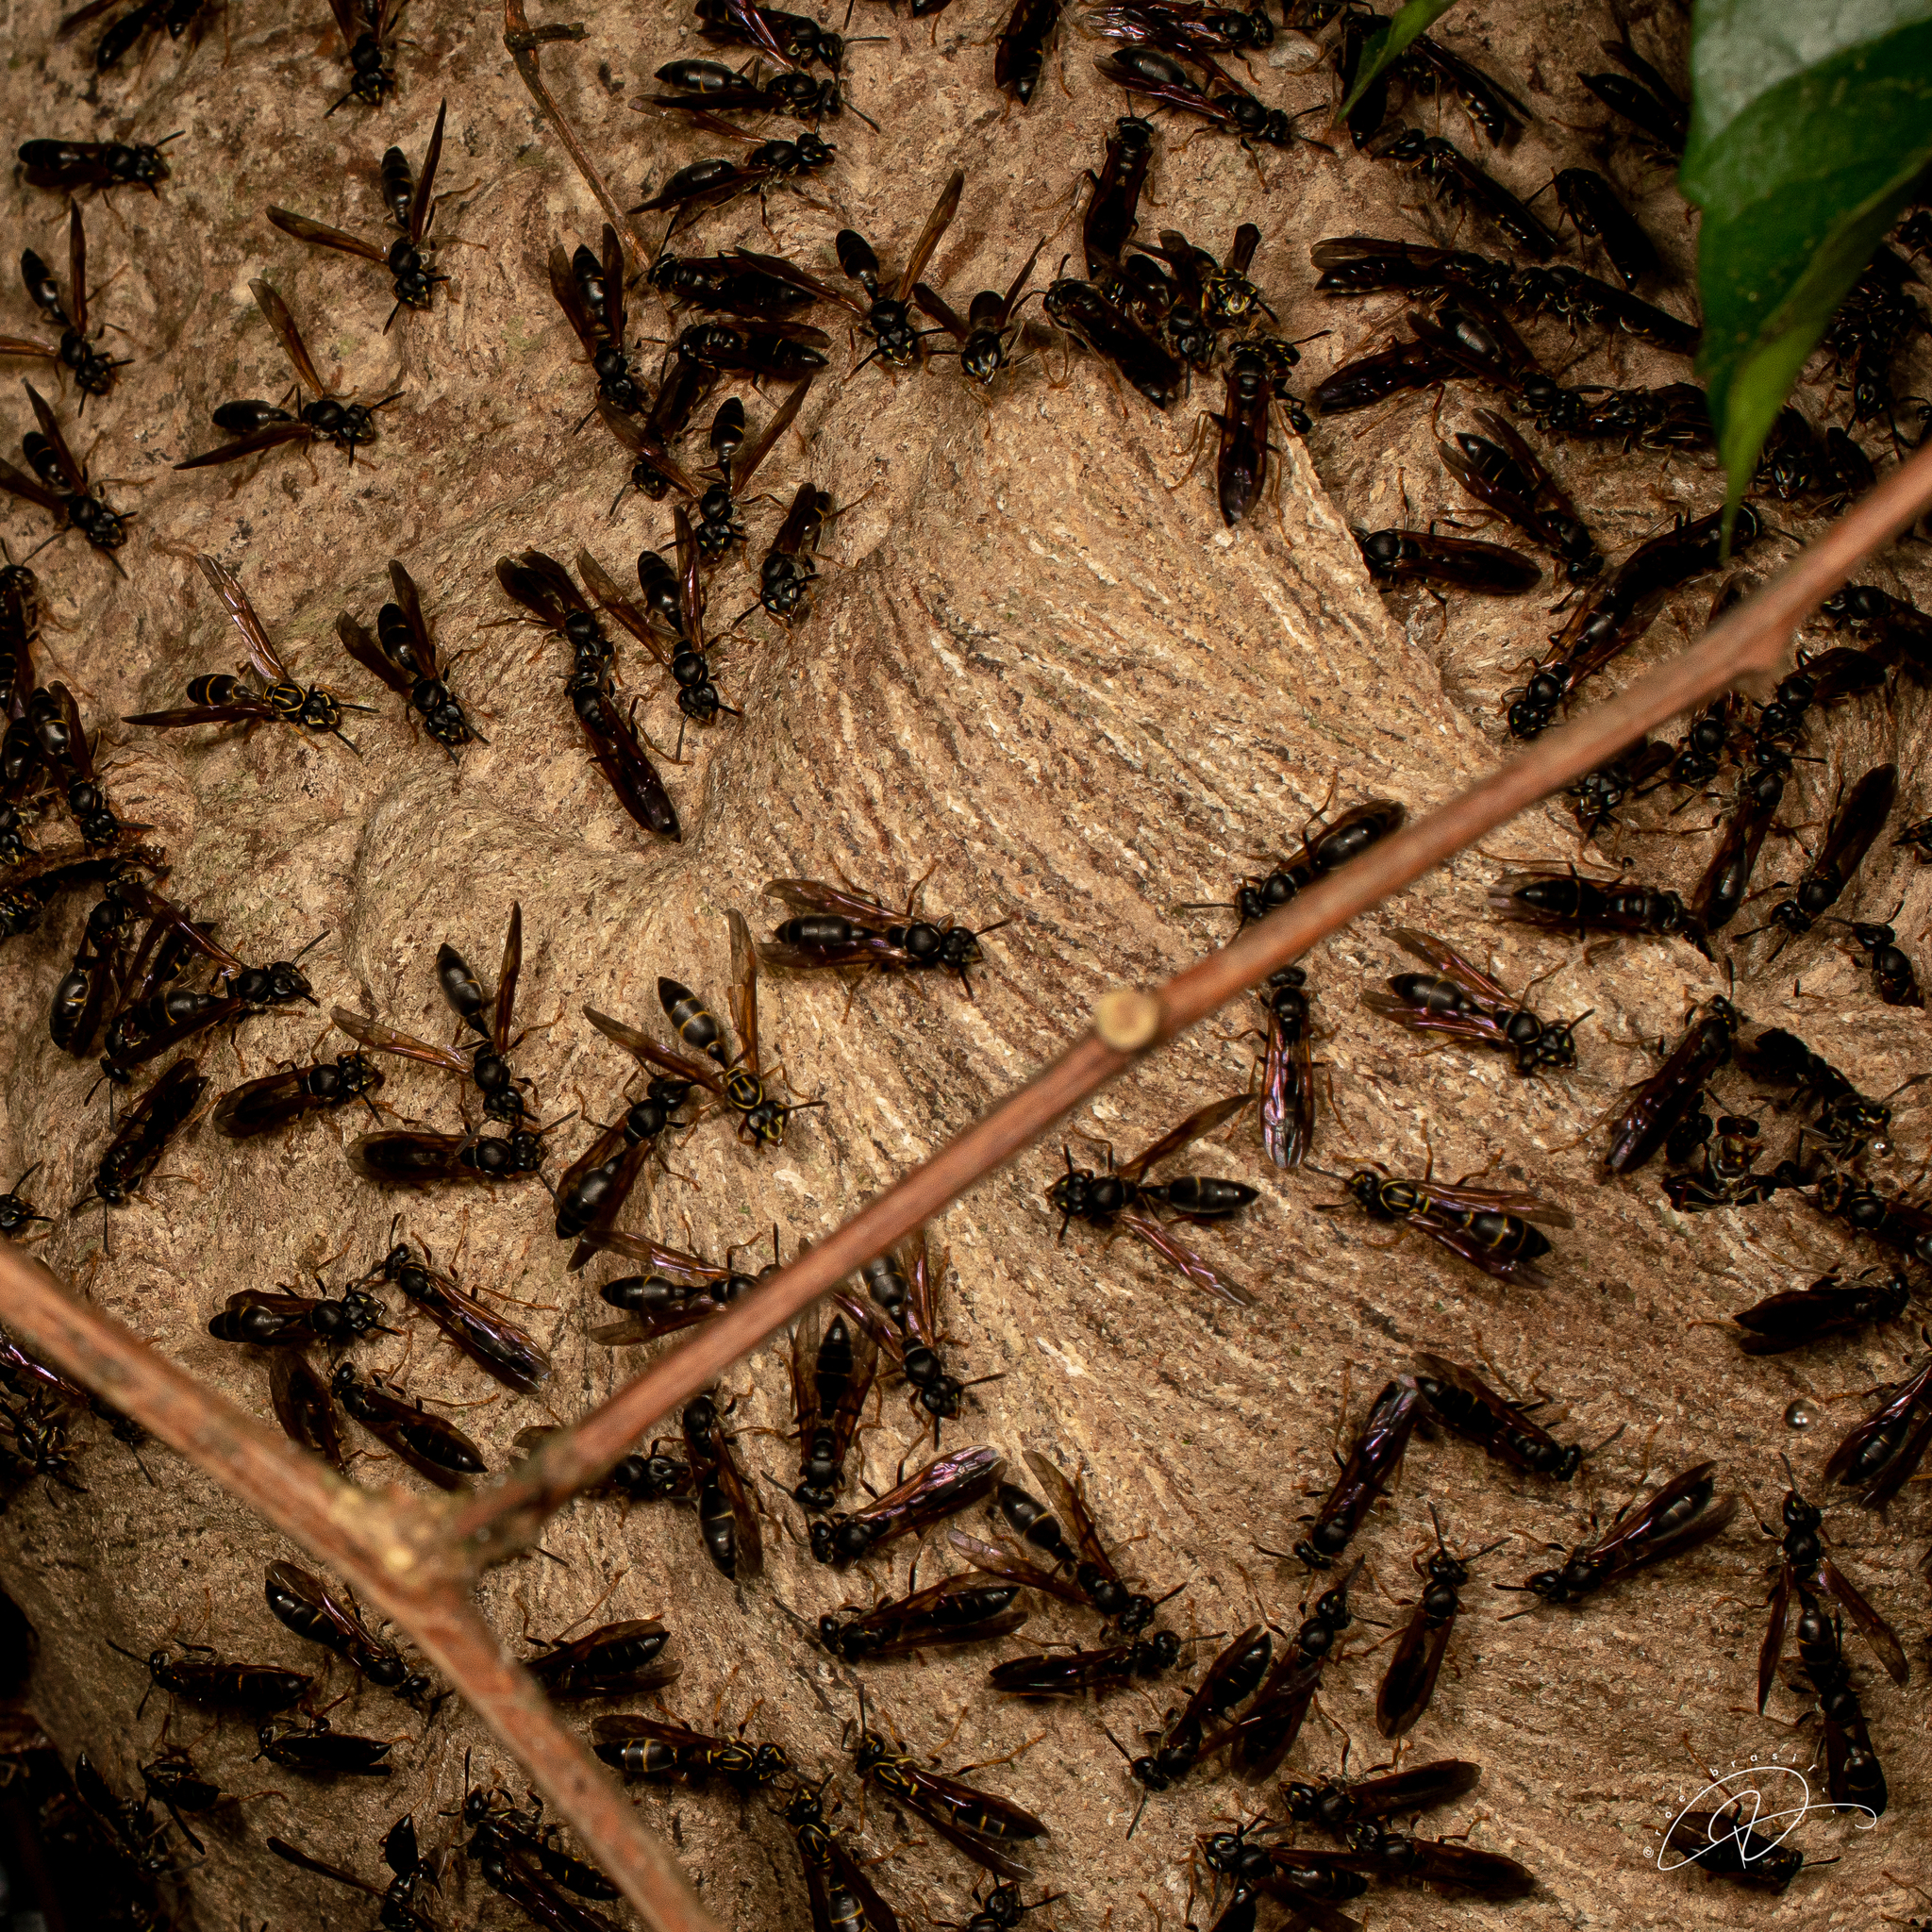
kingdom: Animalia
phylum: Arthropoda
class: Insecta
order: Hymenoptera
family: Eumenidae
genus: Polybia
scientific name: Polybia fastidiosuscula
